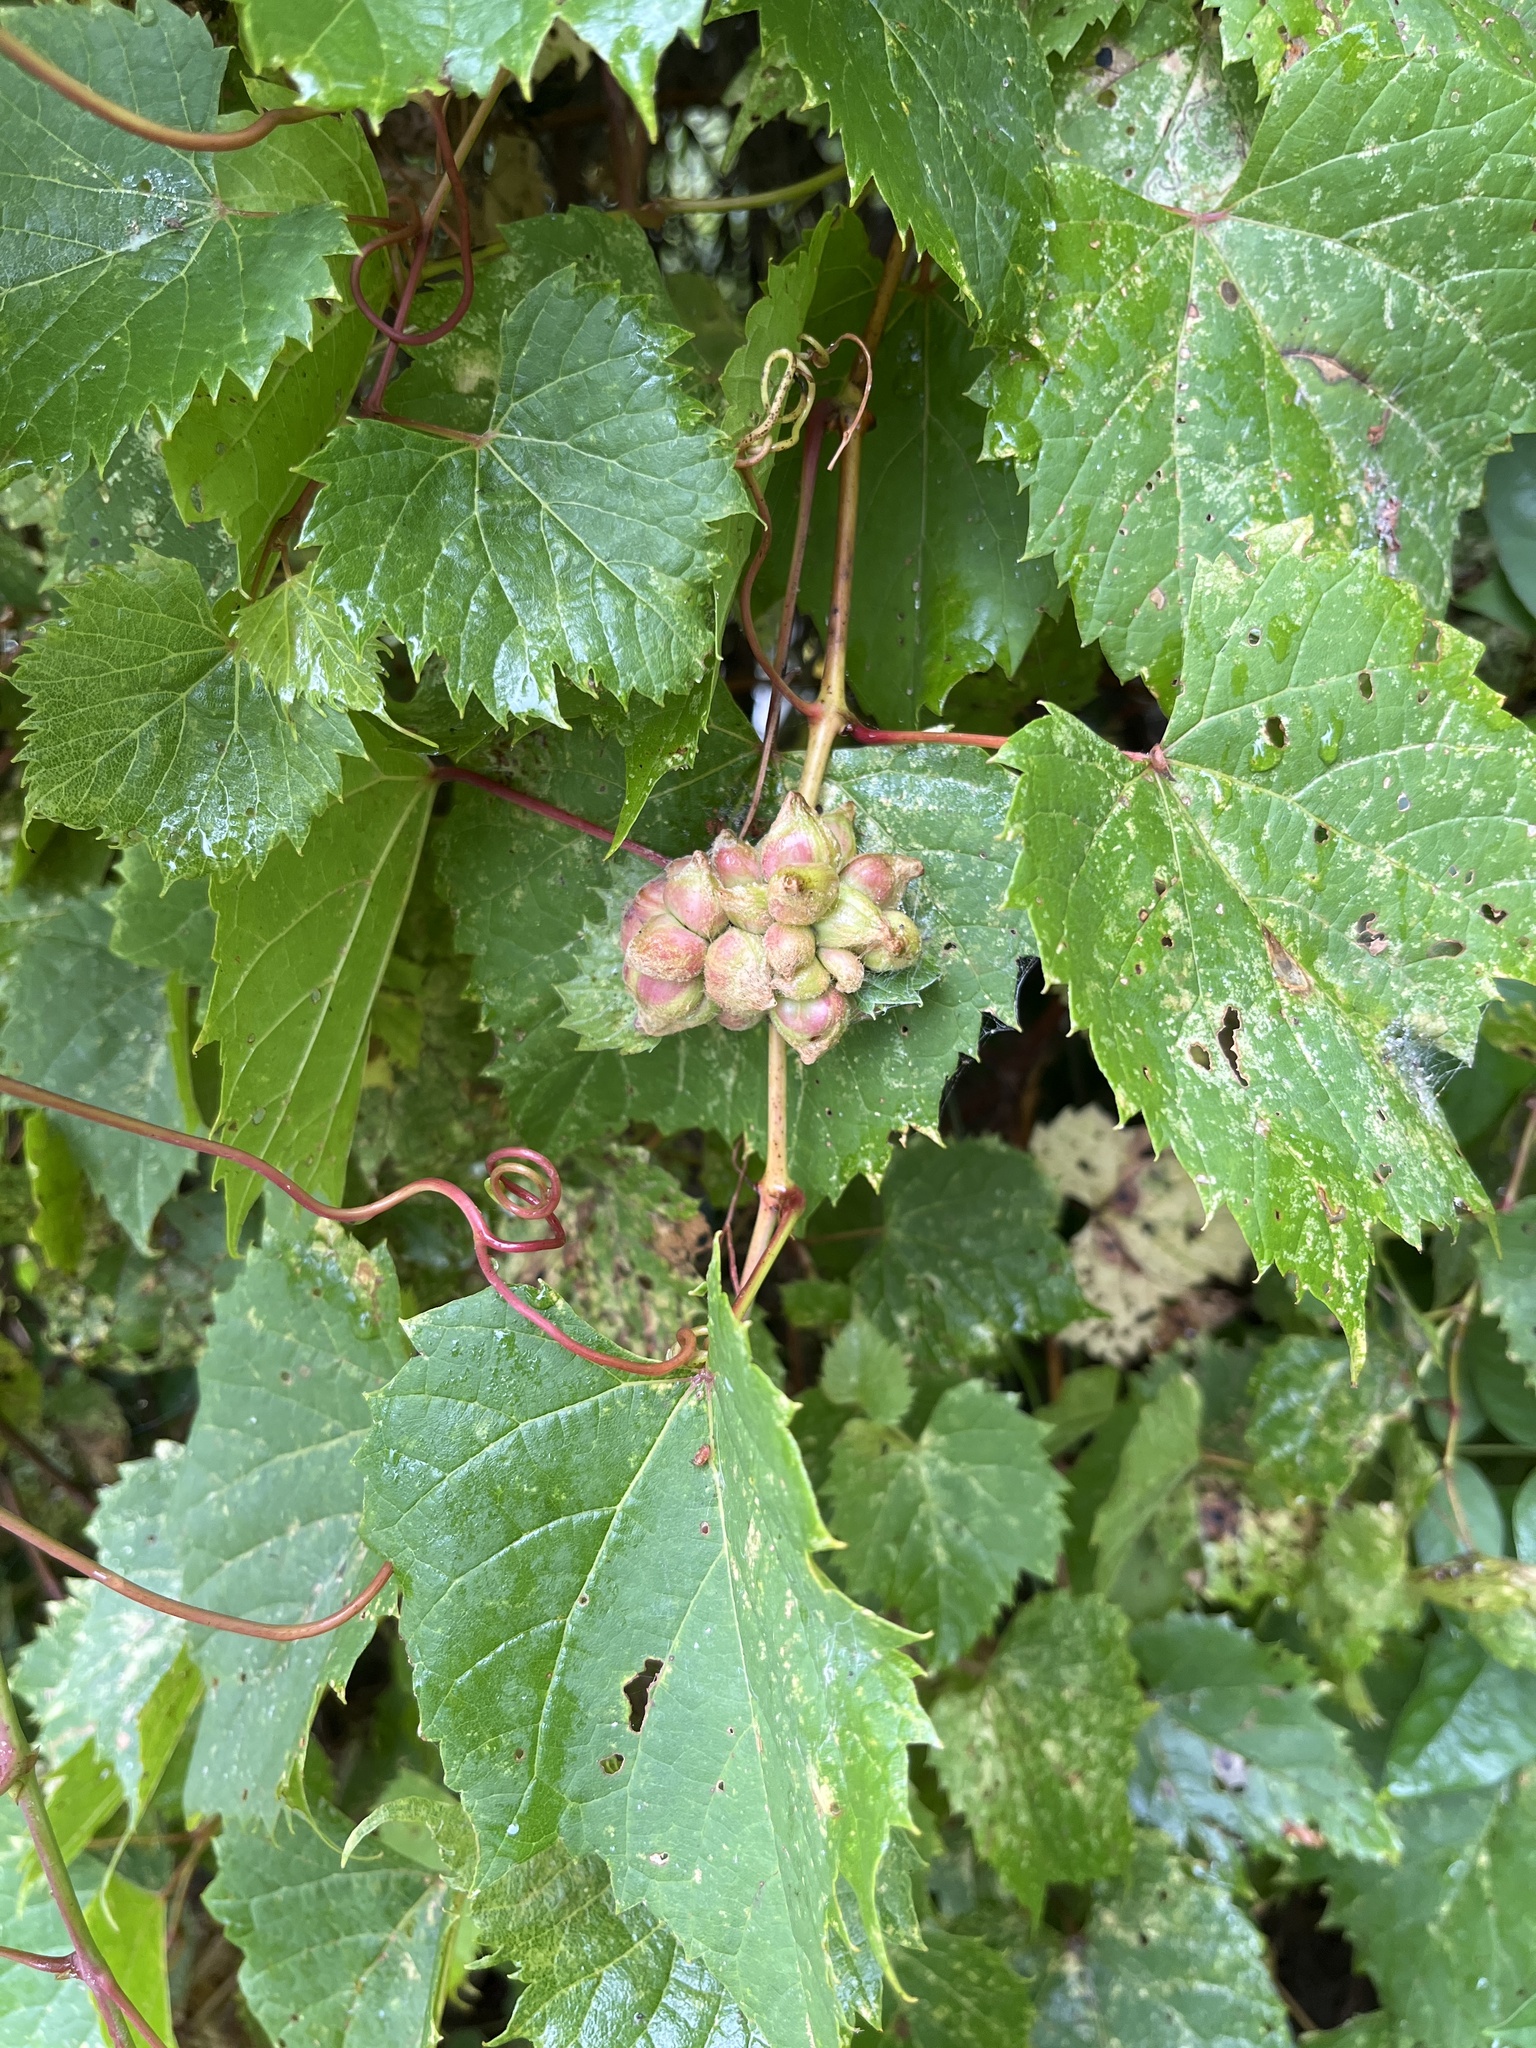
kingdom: Animalia
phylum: Arthropoda
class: Insecta
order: Diptera
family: Cecidomyiidae
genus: Ampelomyia
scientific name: Ampelomyia vitiscoryloides
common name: Grape filbert gall
